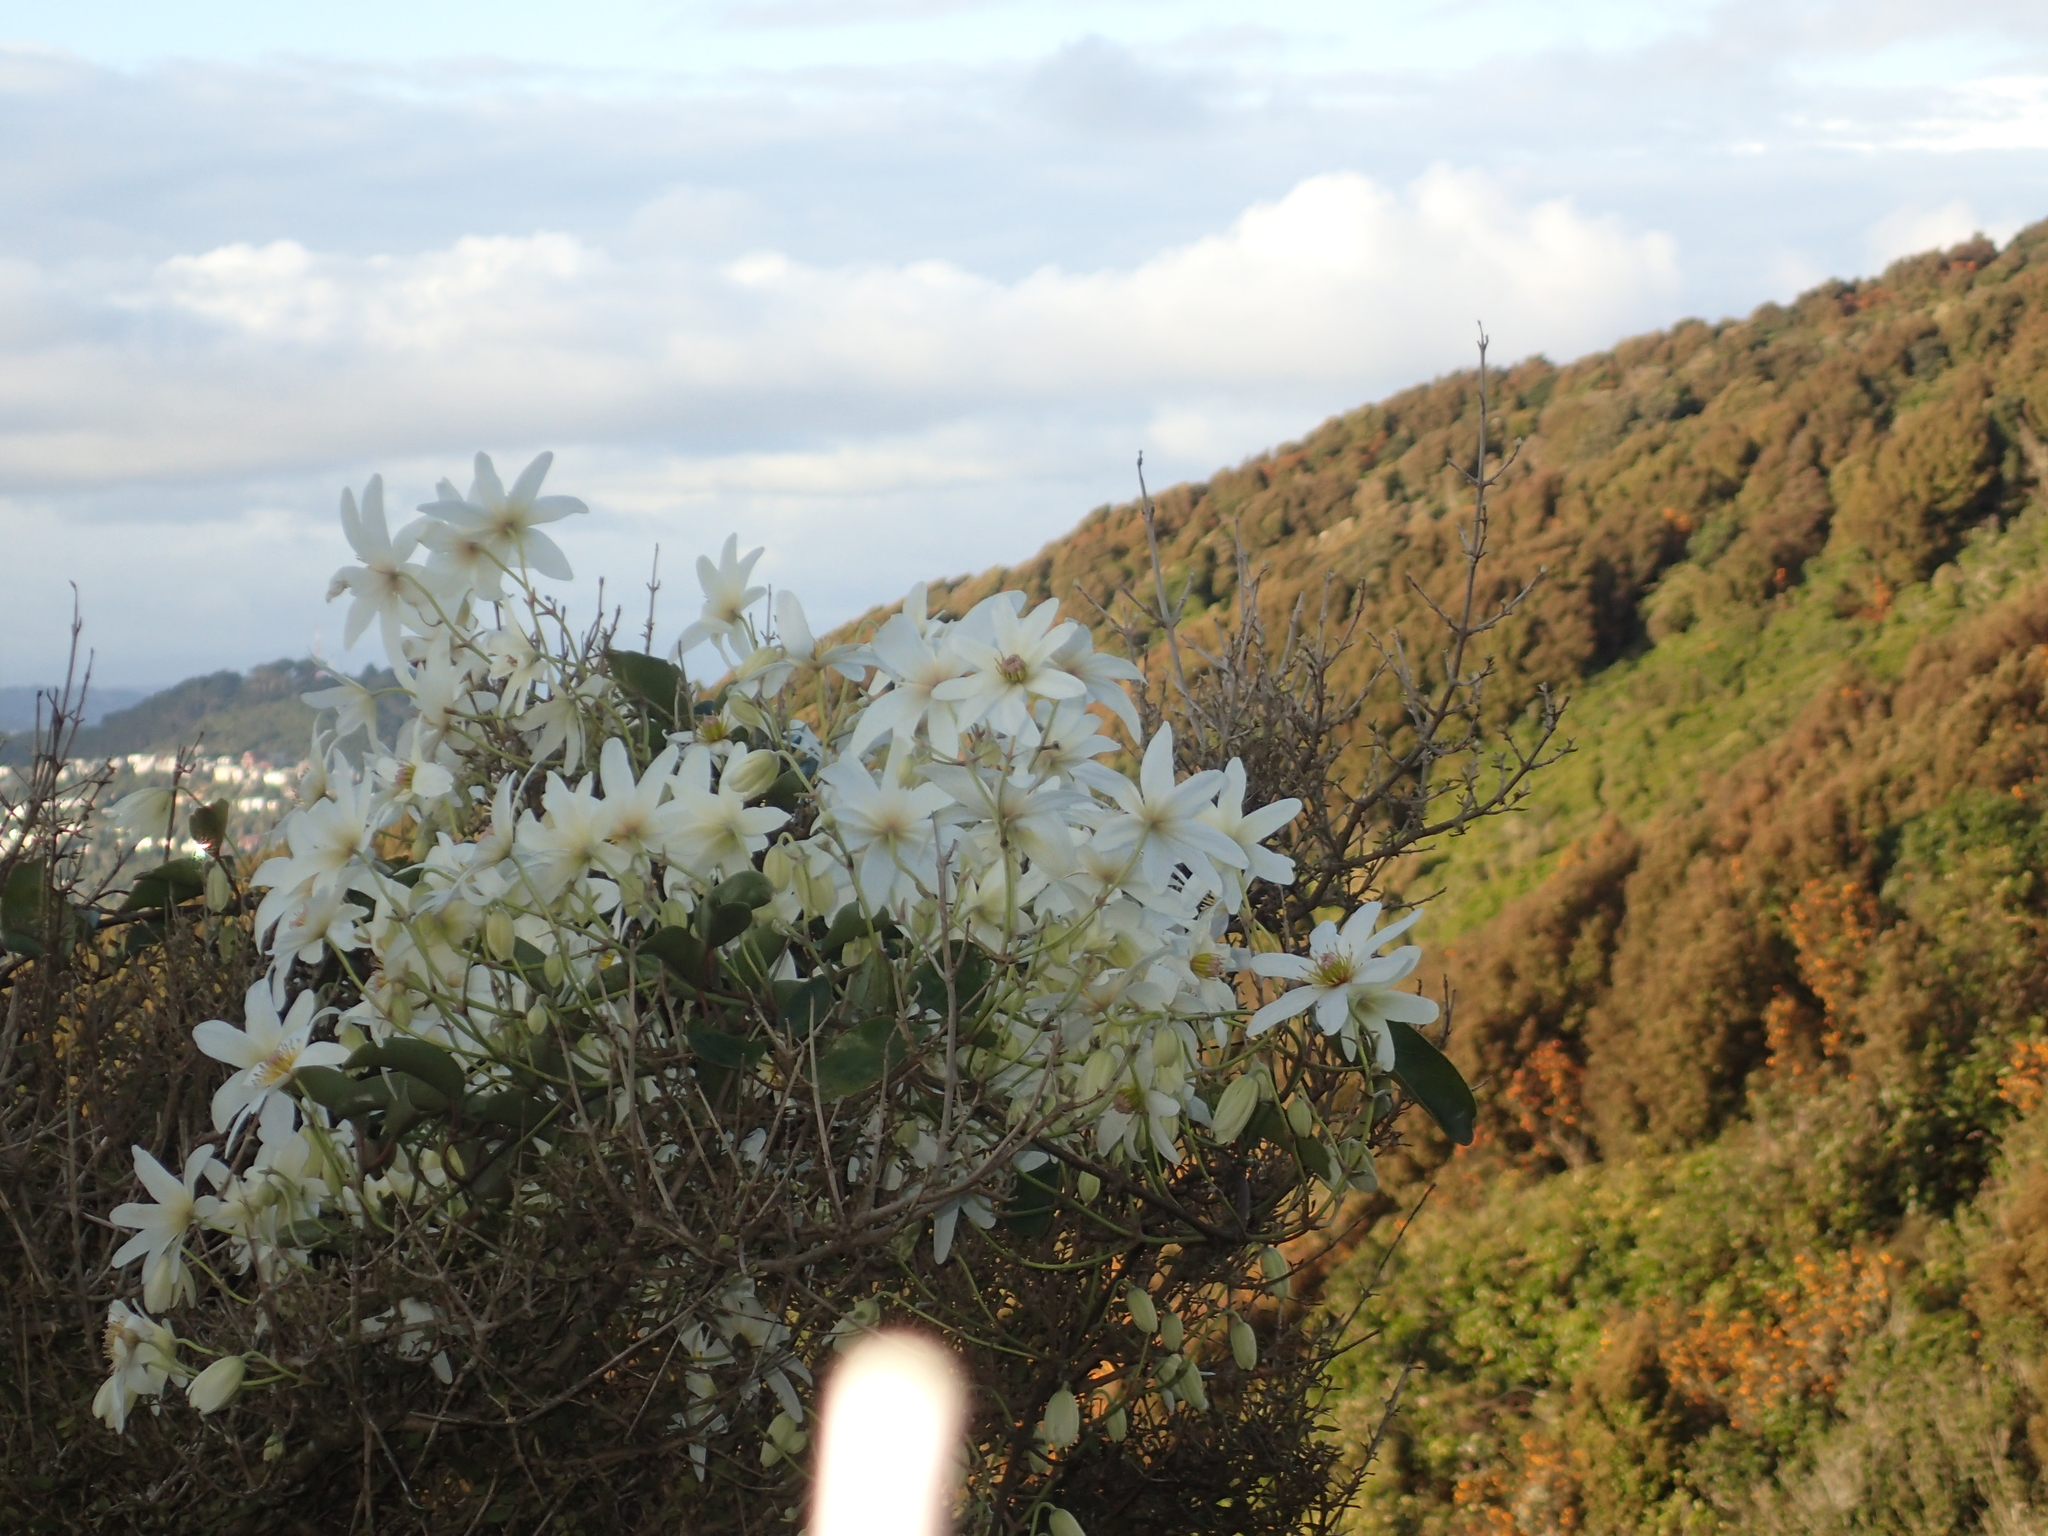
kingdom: Plantae
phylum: Tracheophyta
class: Magnoliopsida
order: Ranunculales
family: Ranunculaceae
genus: Clematis
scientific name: Clematis paniculata
